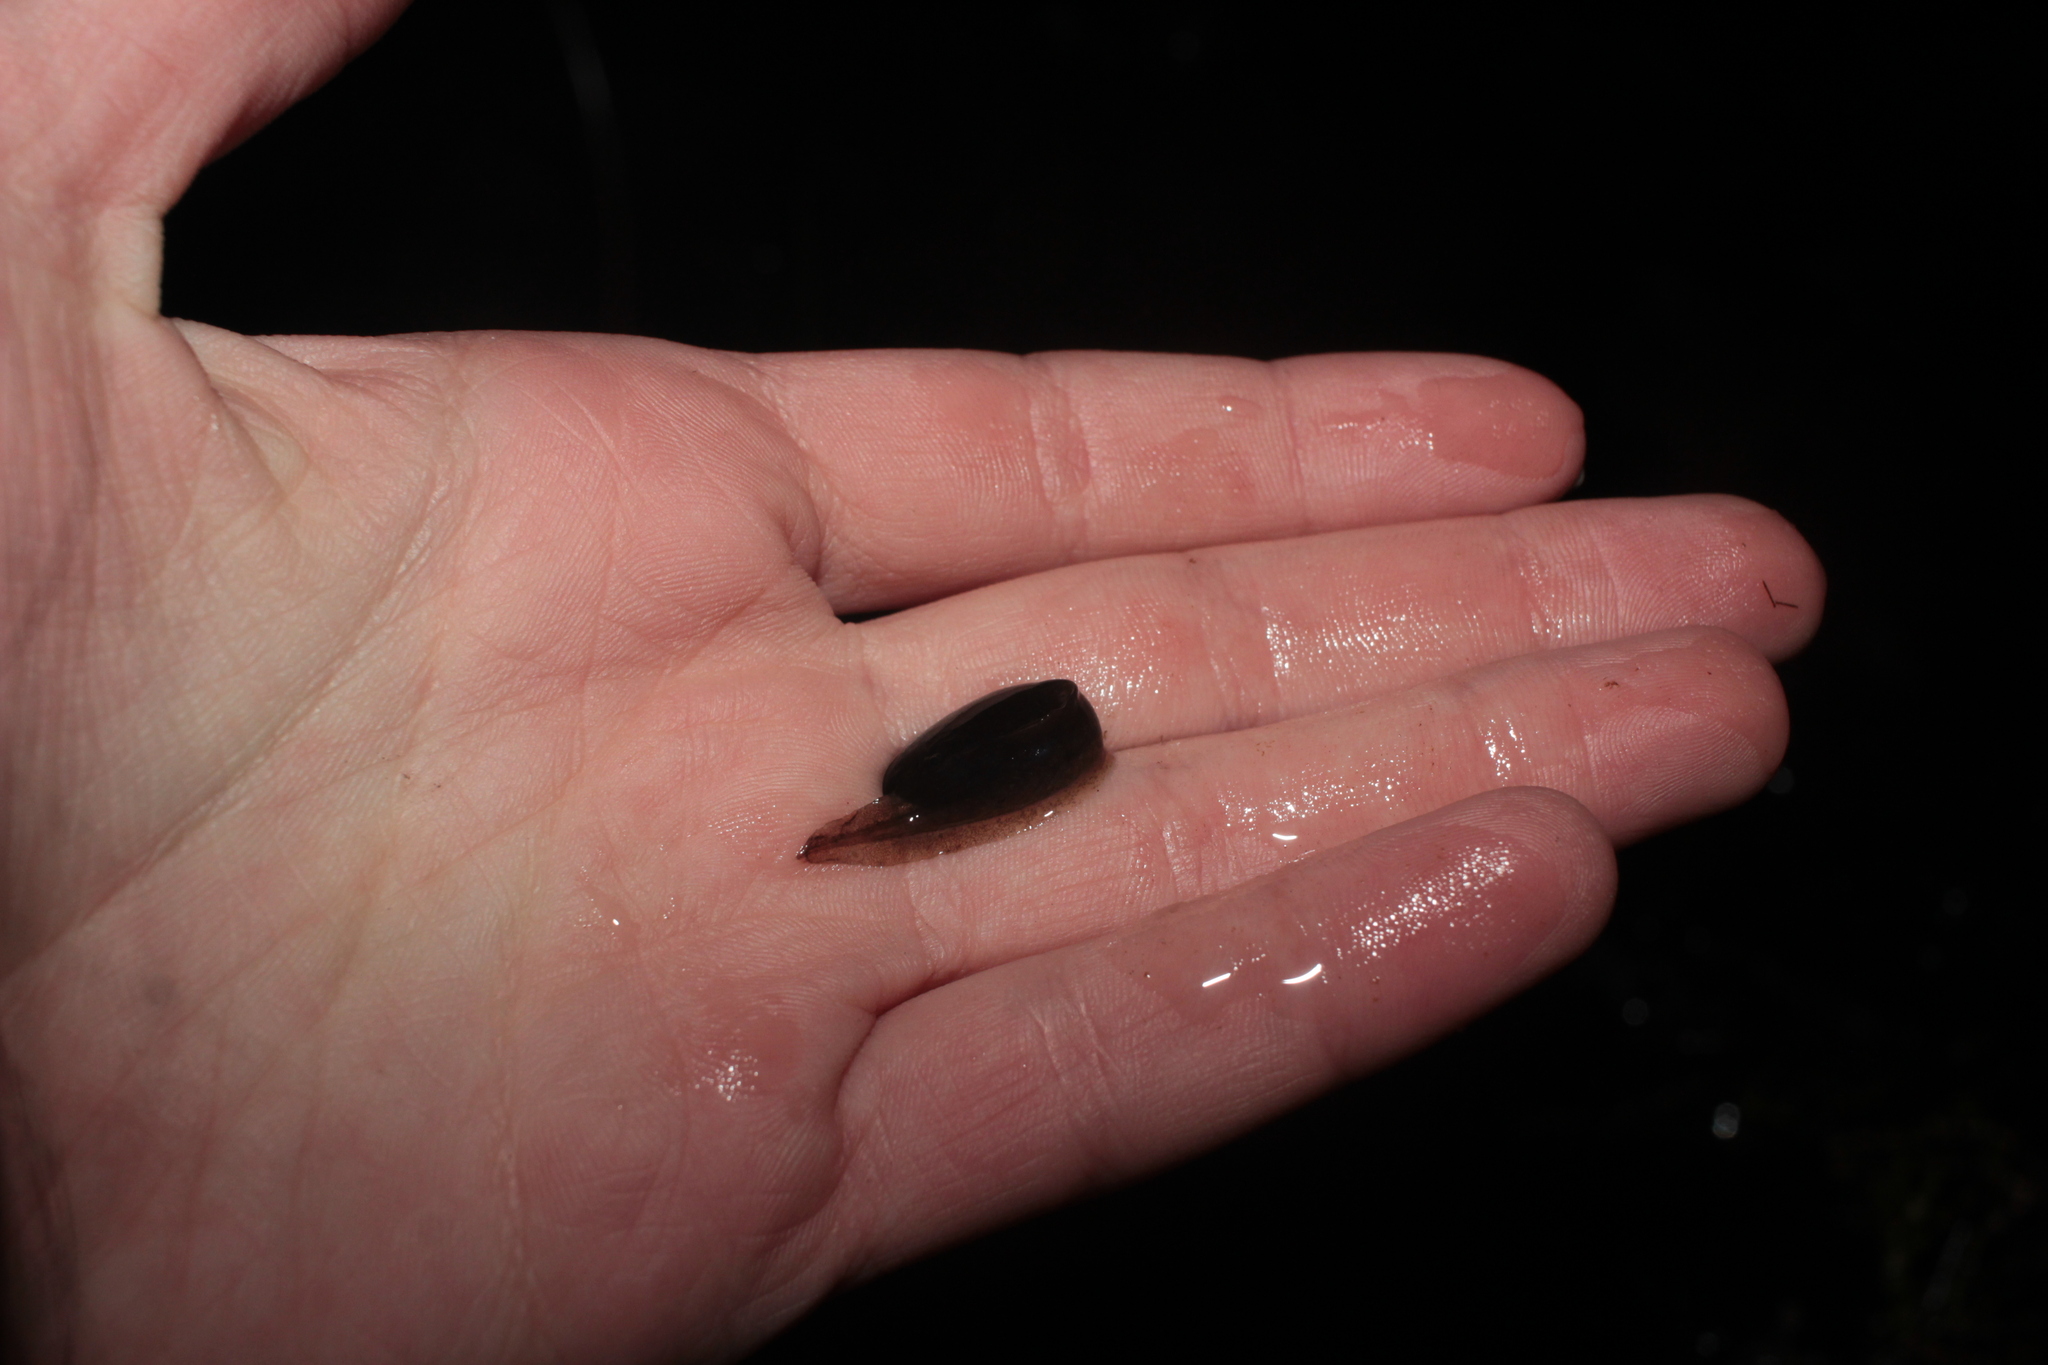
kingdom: Animalia
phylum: Chordata
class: Amphibia
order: Anura
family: Ranidae
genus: Lithobates
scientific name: Lithobates
